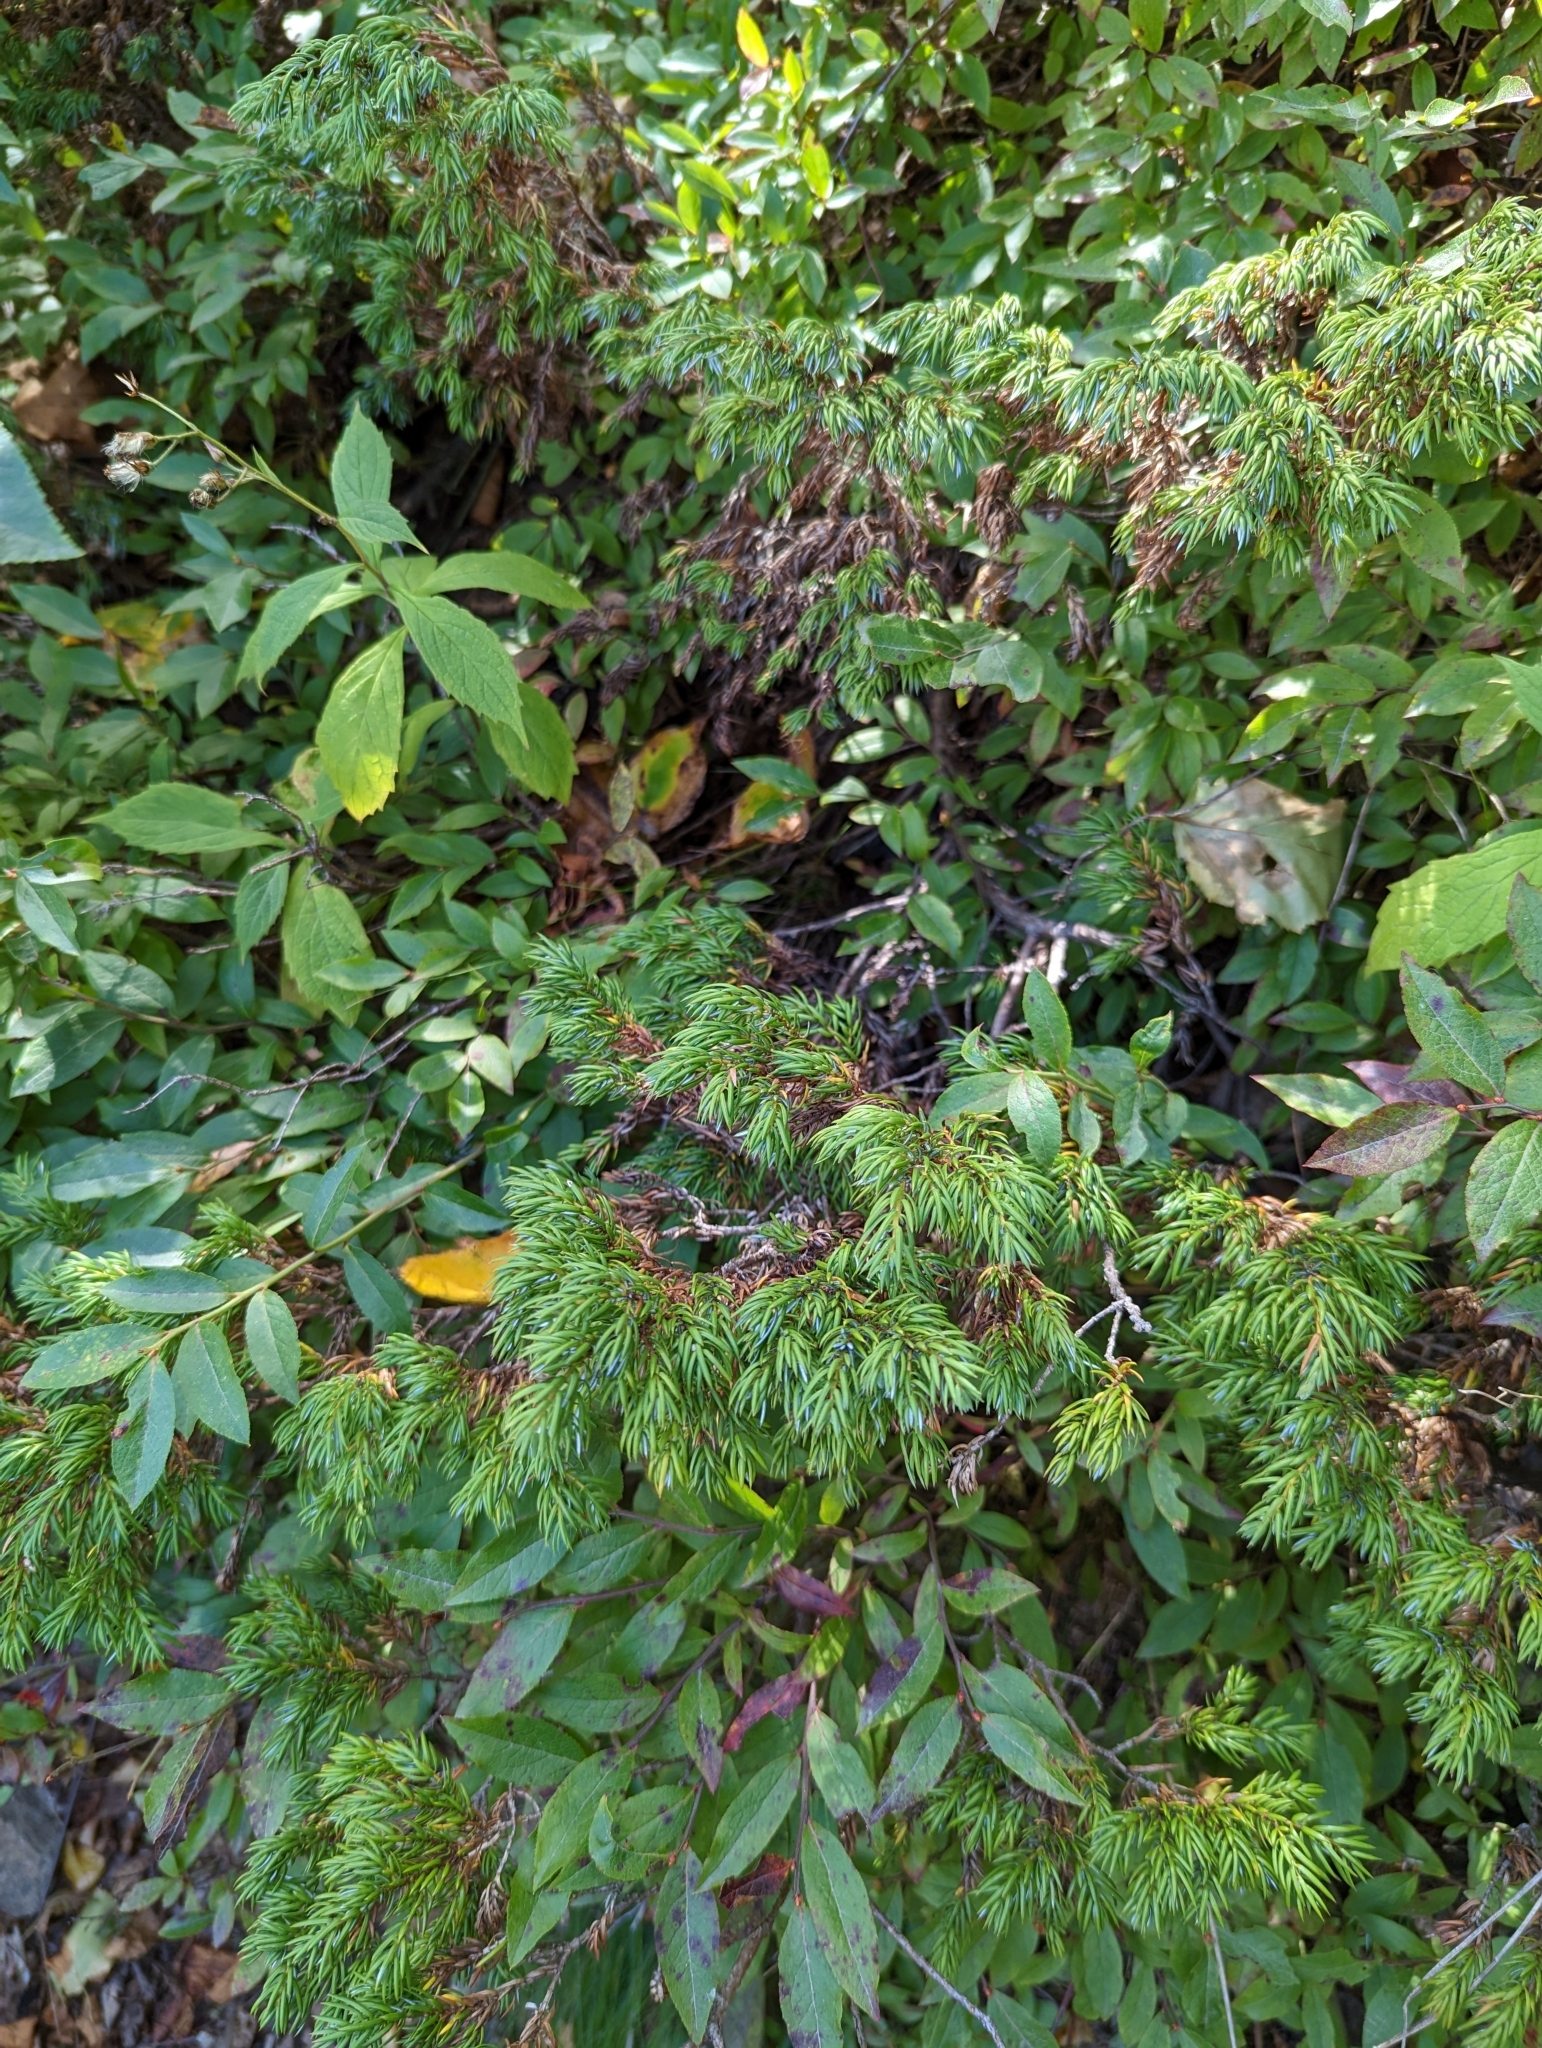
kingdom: Plantae
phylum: Tracheophyta
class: Pinopsida
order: Pinales
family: Cupressaceae
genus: Juniperus
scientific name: Juniperus communis
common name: Common juniper
